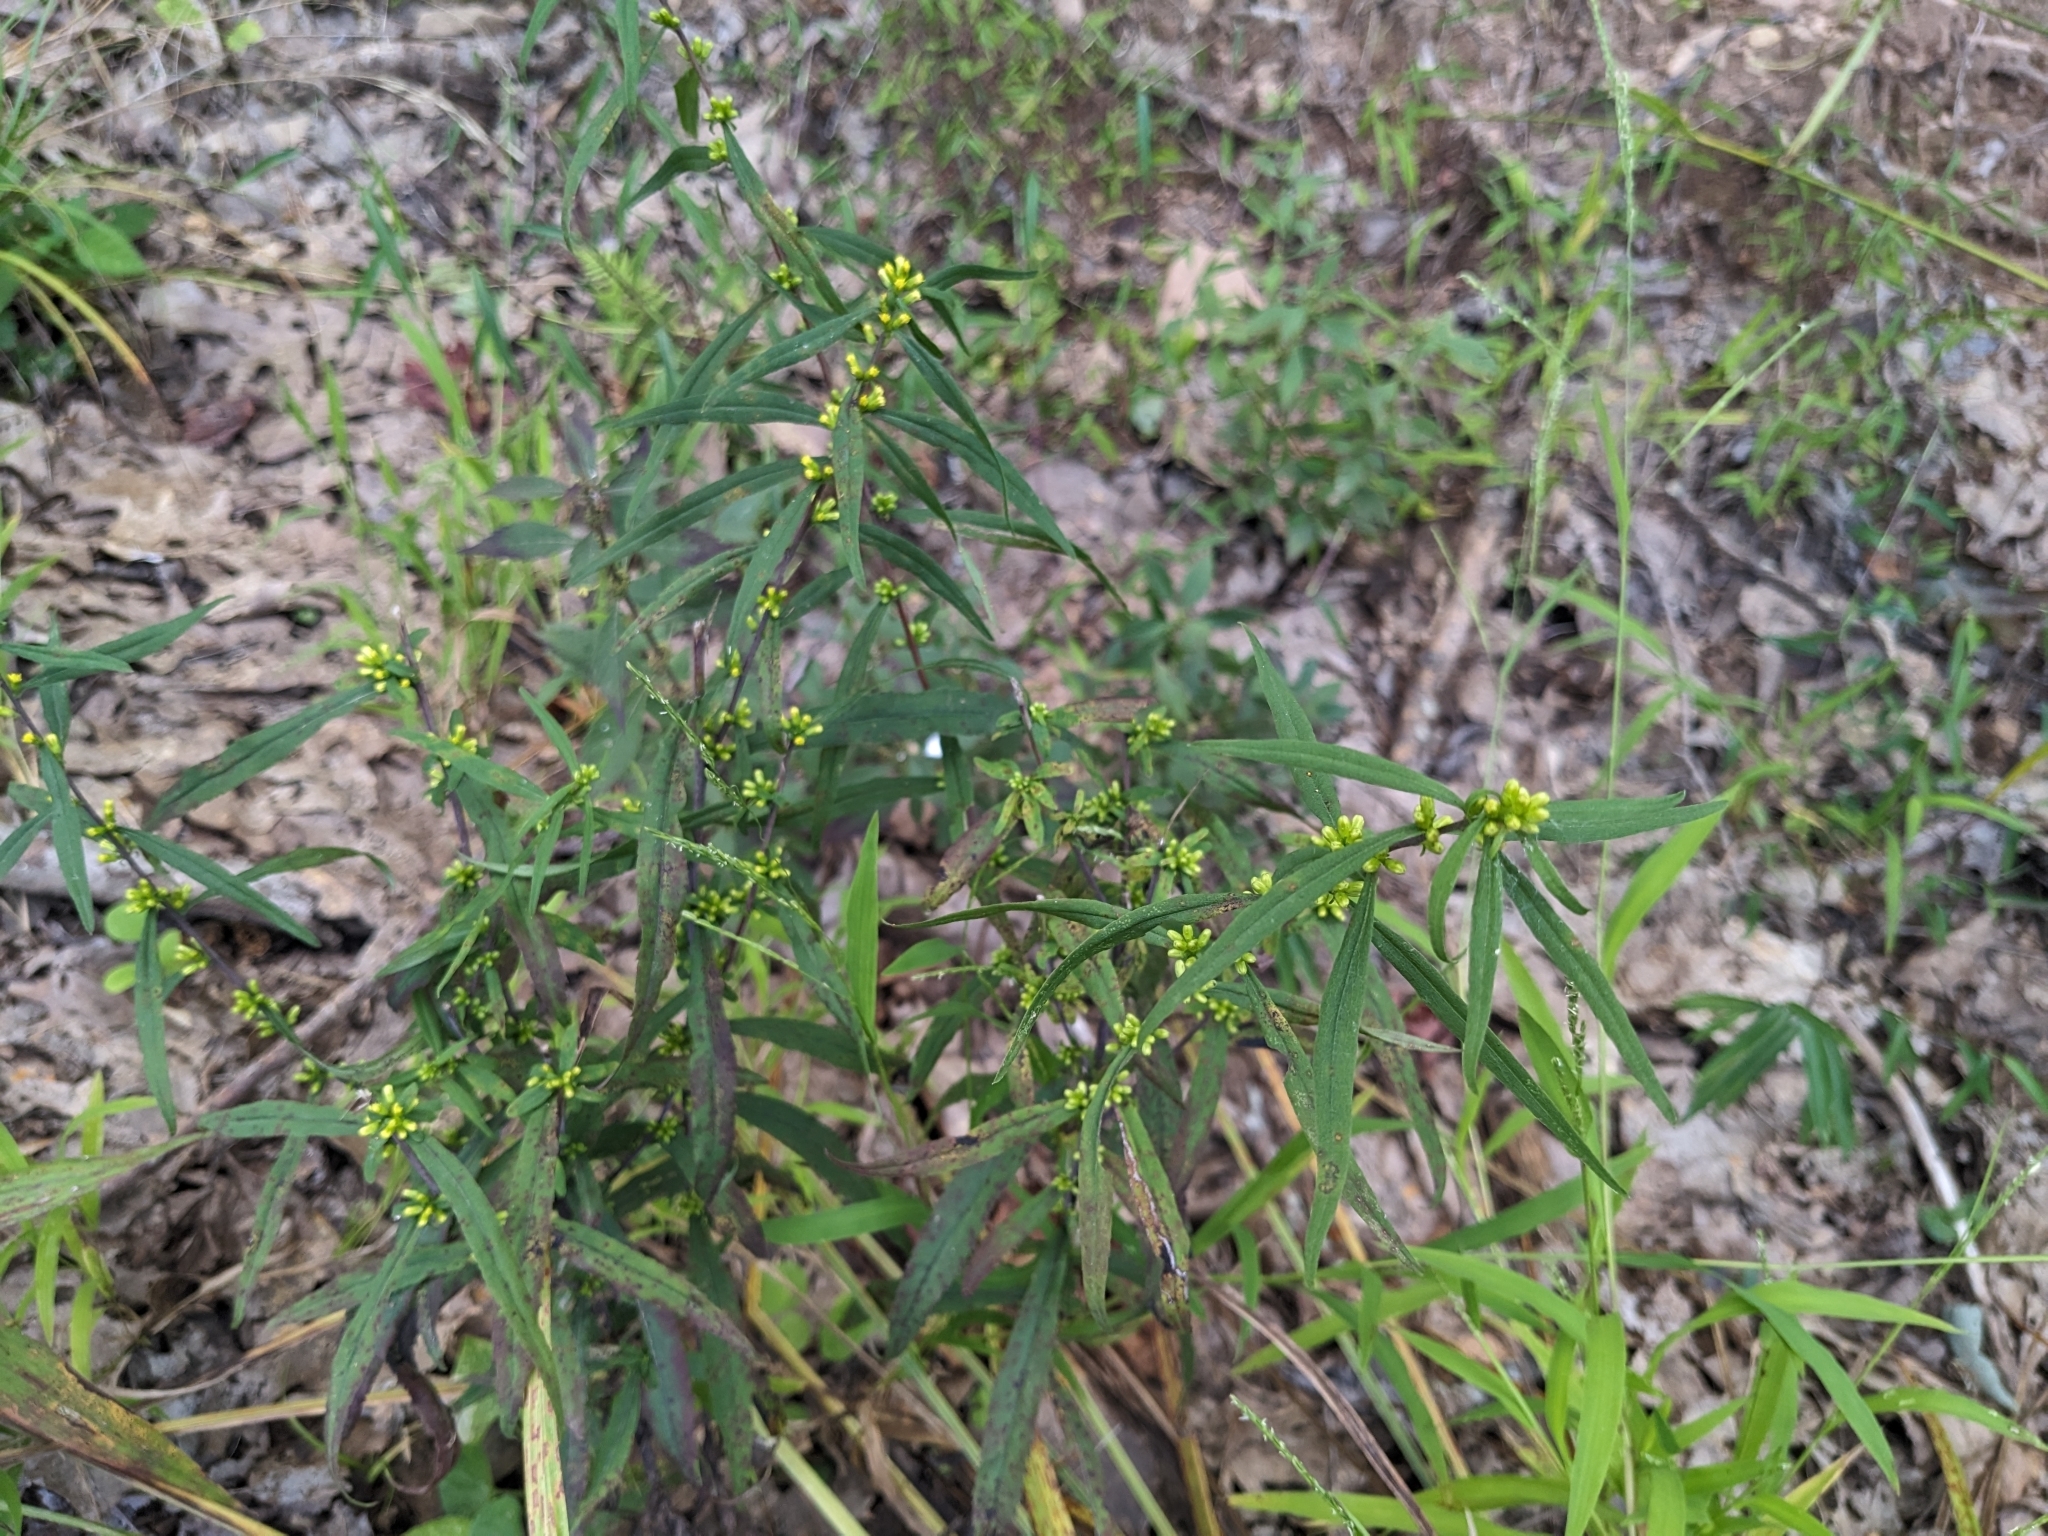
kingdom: Plantae
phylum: Tracheophyta
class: Magnoliopsida
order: Asterales
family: Asteraceae
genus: Solidago
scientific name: Solidago caesia
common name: Woodland goldenrod
